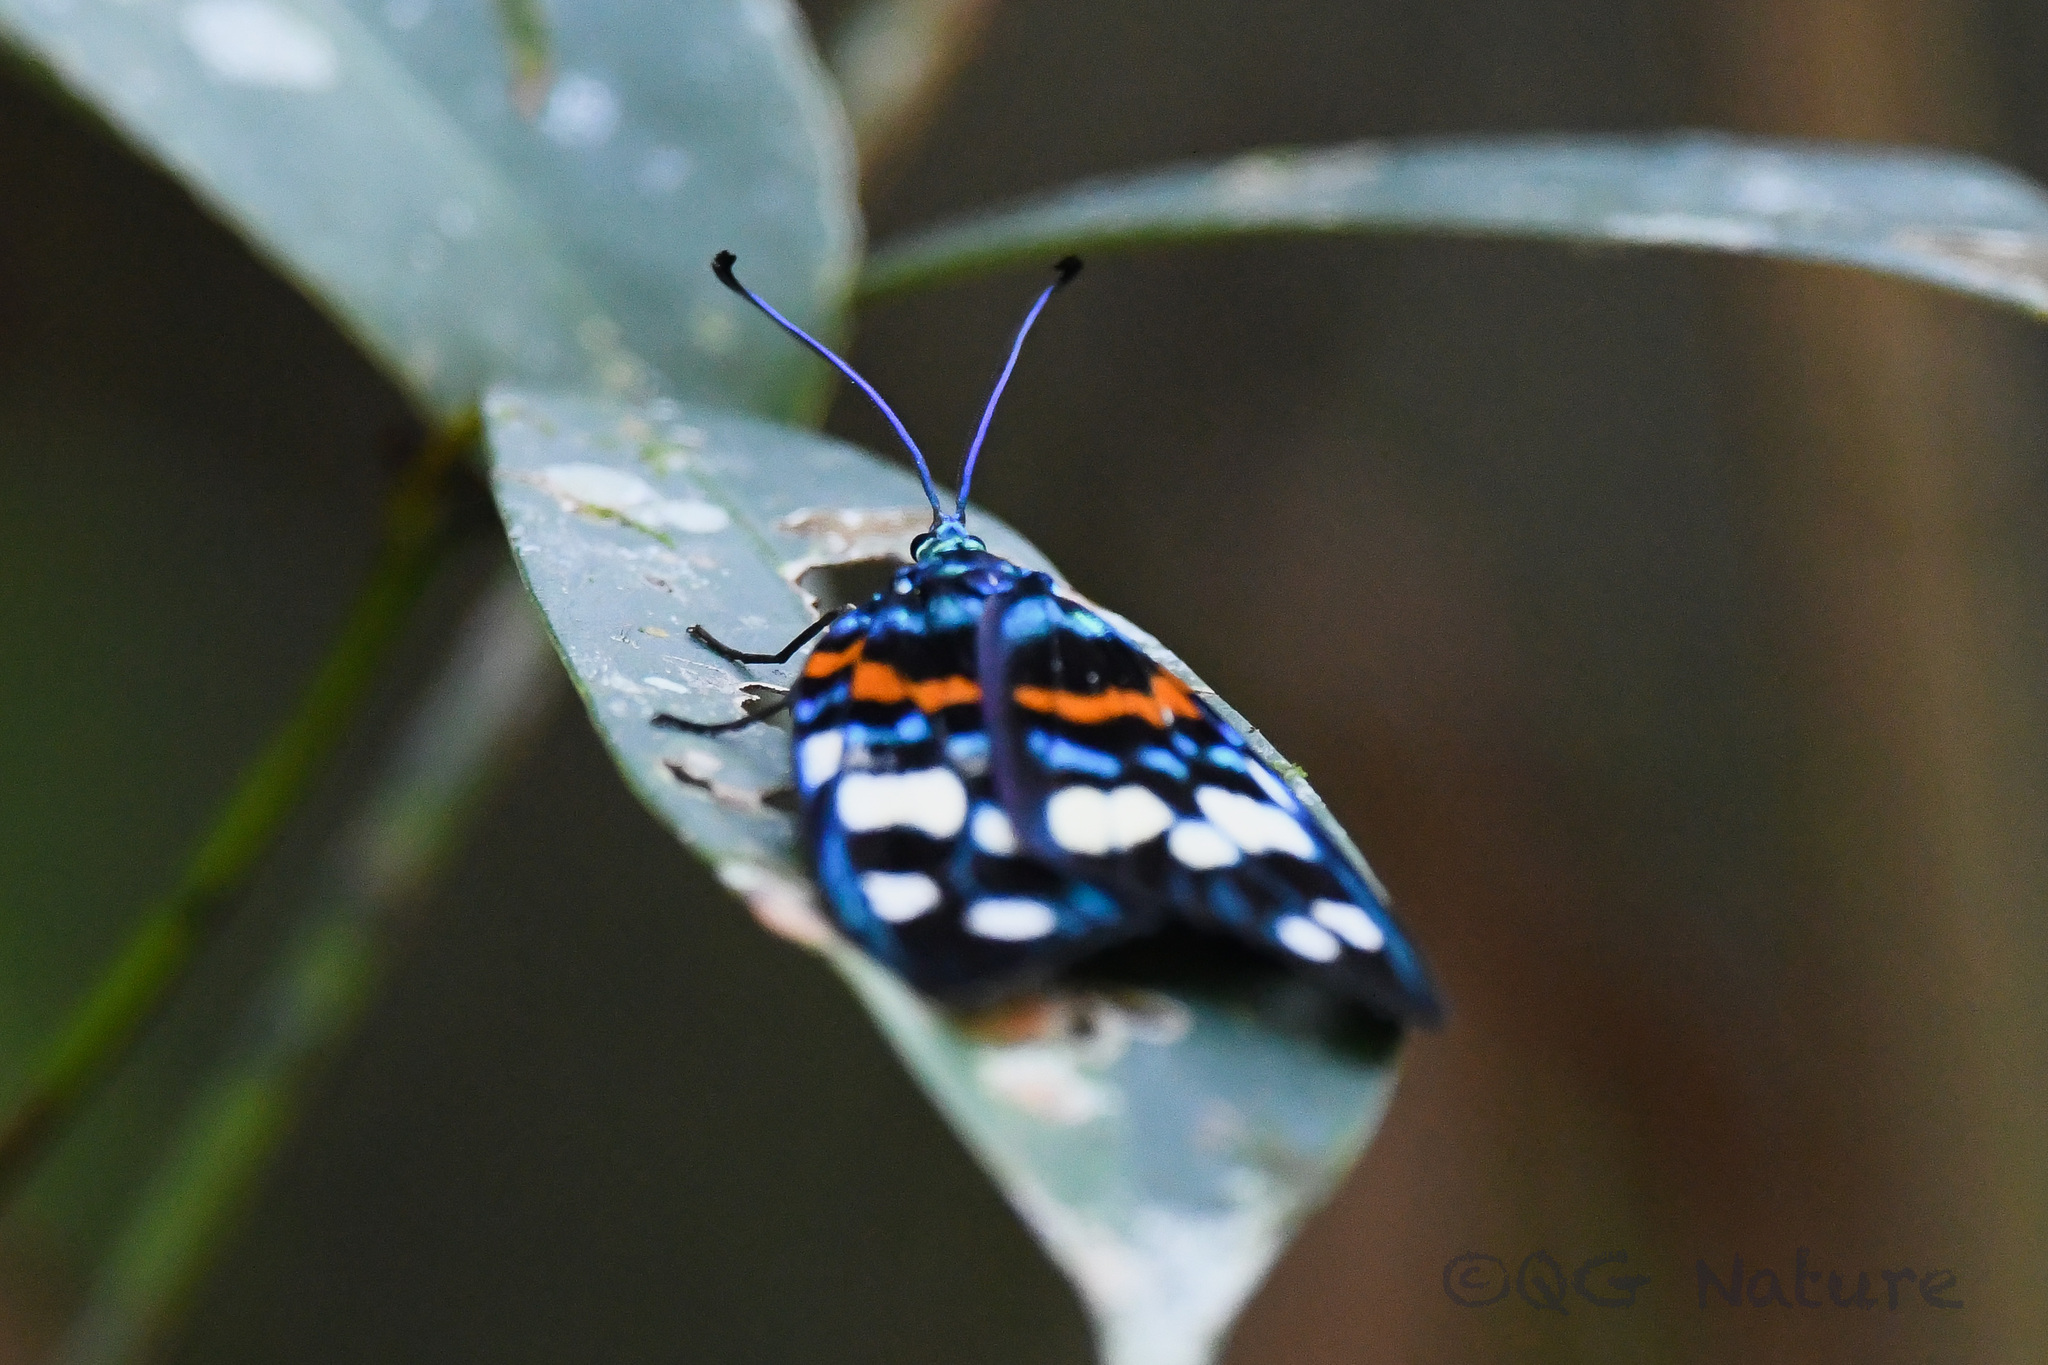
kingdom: Animalia
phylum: Arthropoda
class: Insecta
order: Lepidoptera
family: Zygaenidae
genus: Erasmia
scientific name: Erasmia pulchella
